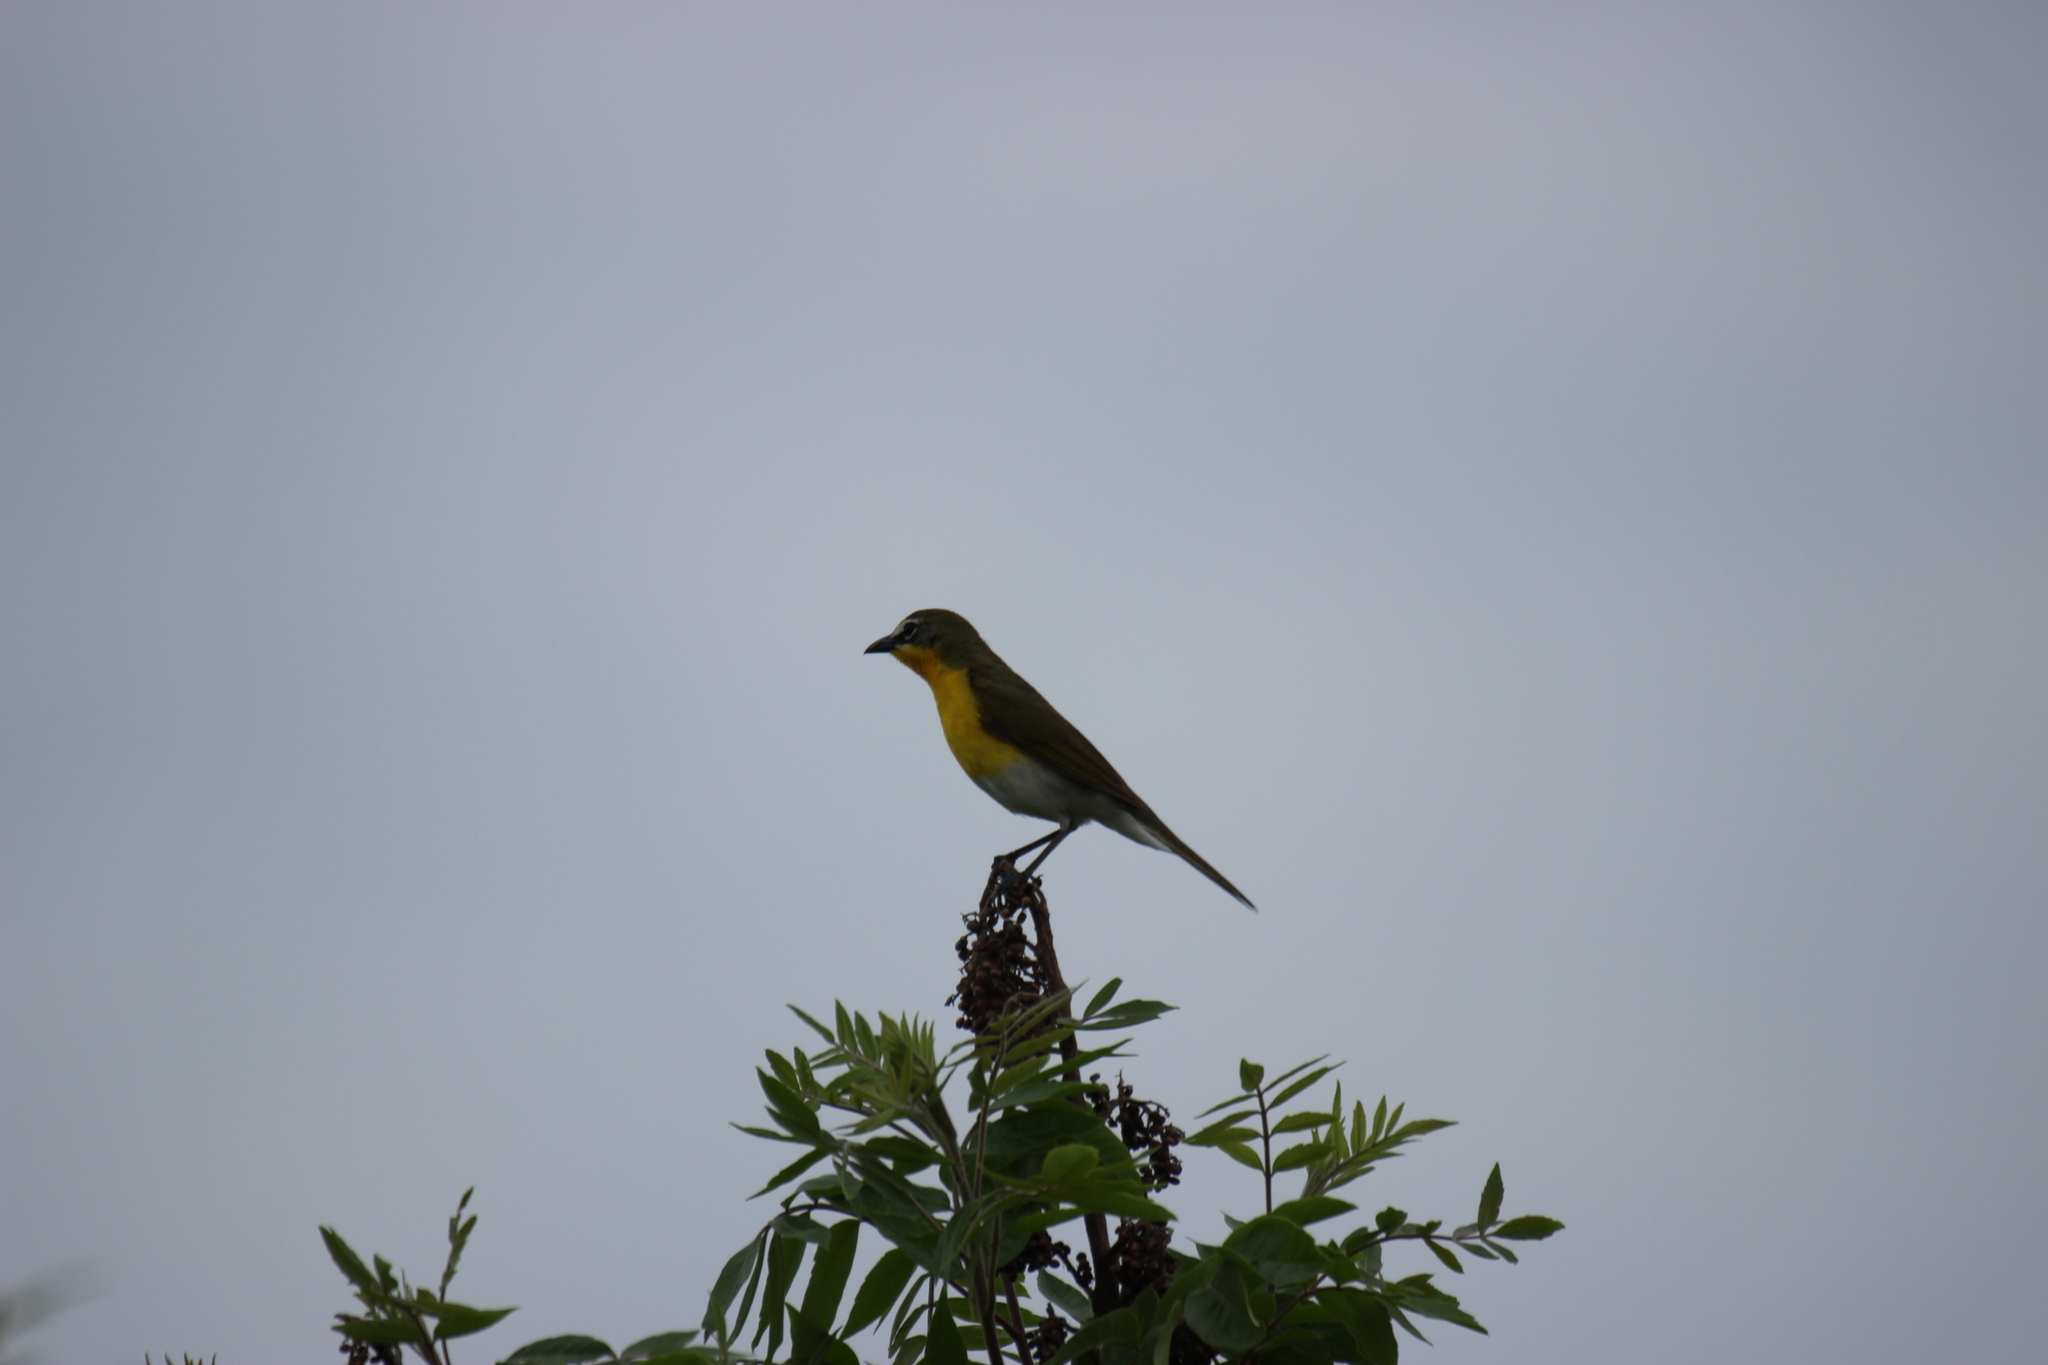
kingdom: Animalia
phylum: Chordata
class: Aves
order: Passeriformes
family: Parulidae
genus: Icteria
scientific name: Icteria virens
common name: Yellow-breasted chat
